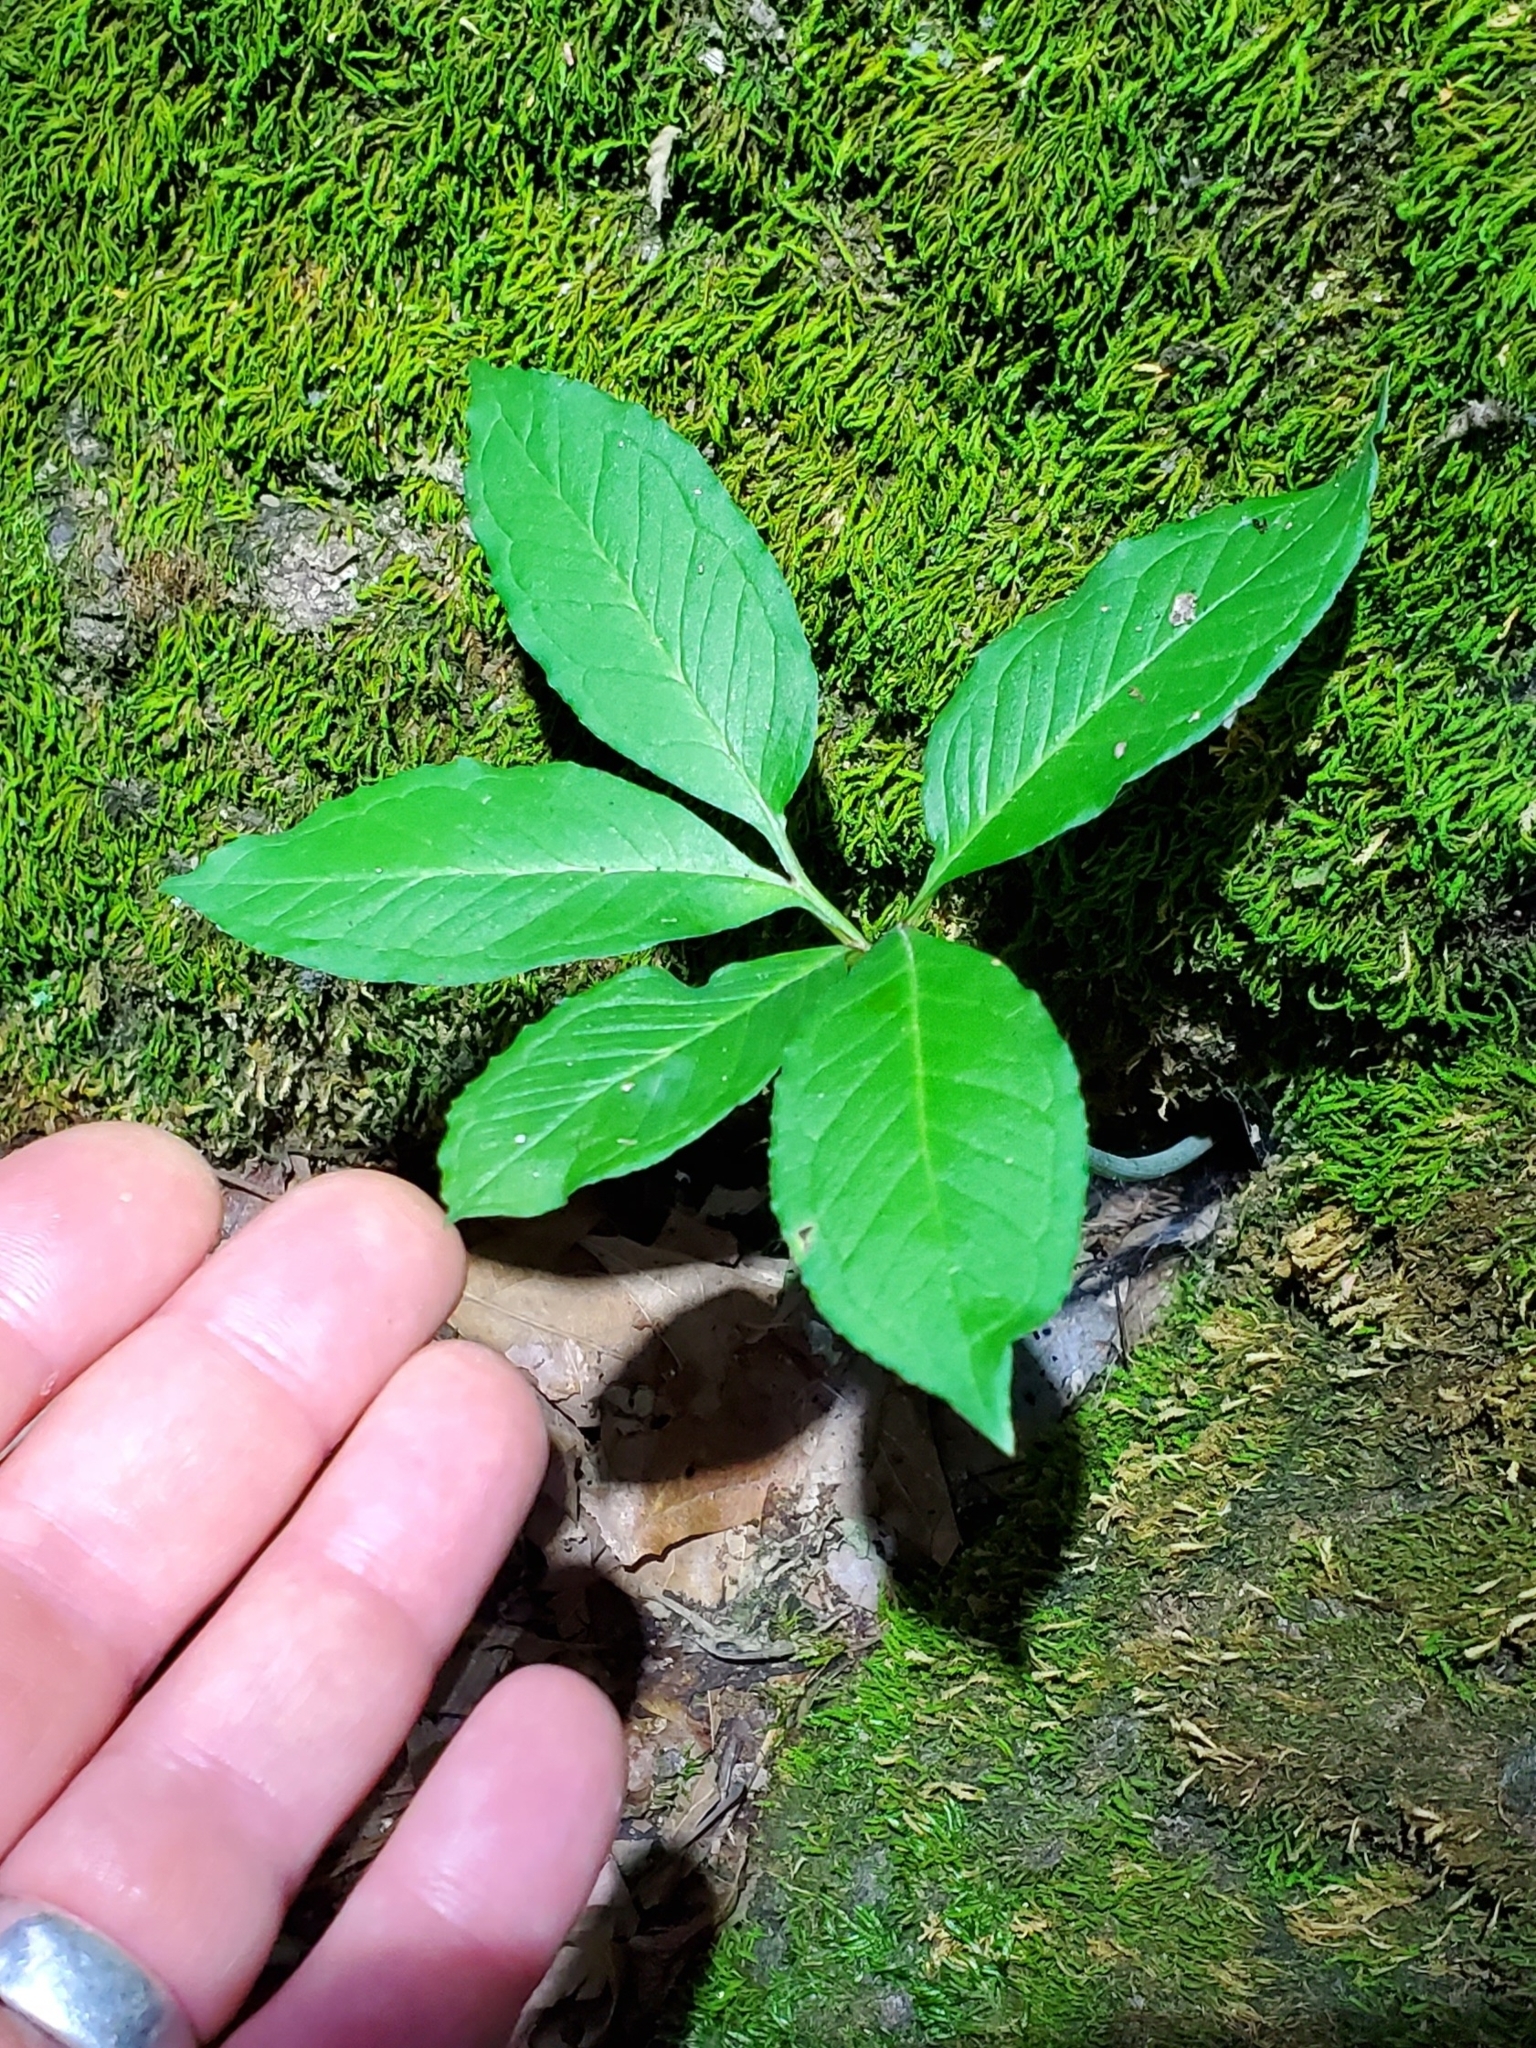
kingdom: Plantae
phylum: Tracheophyta
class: Liliopsida
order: Alismatales
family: Araceae
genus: Arisaema
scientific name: Arisaema dracontium
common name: Dragon-arum
